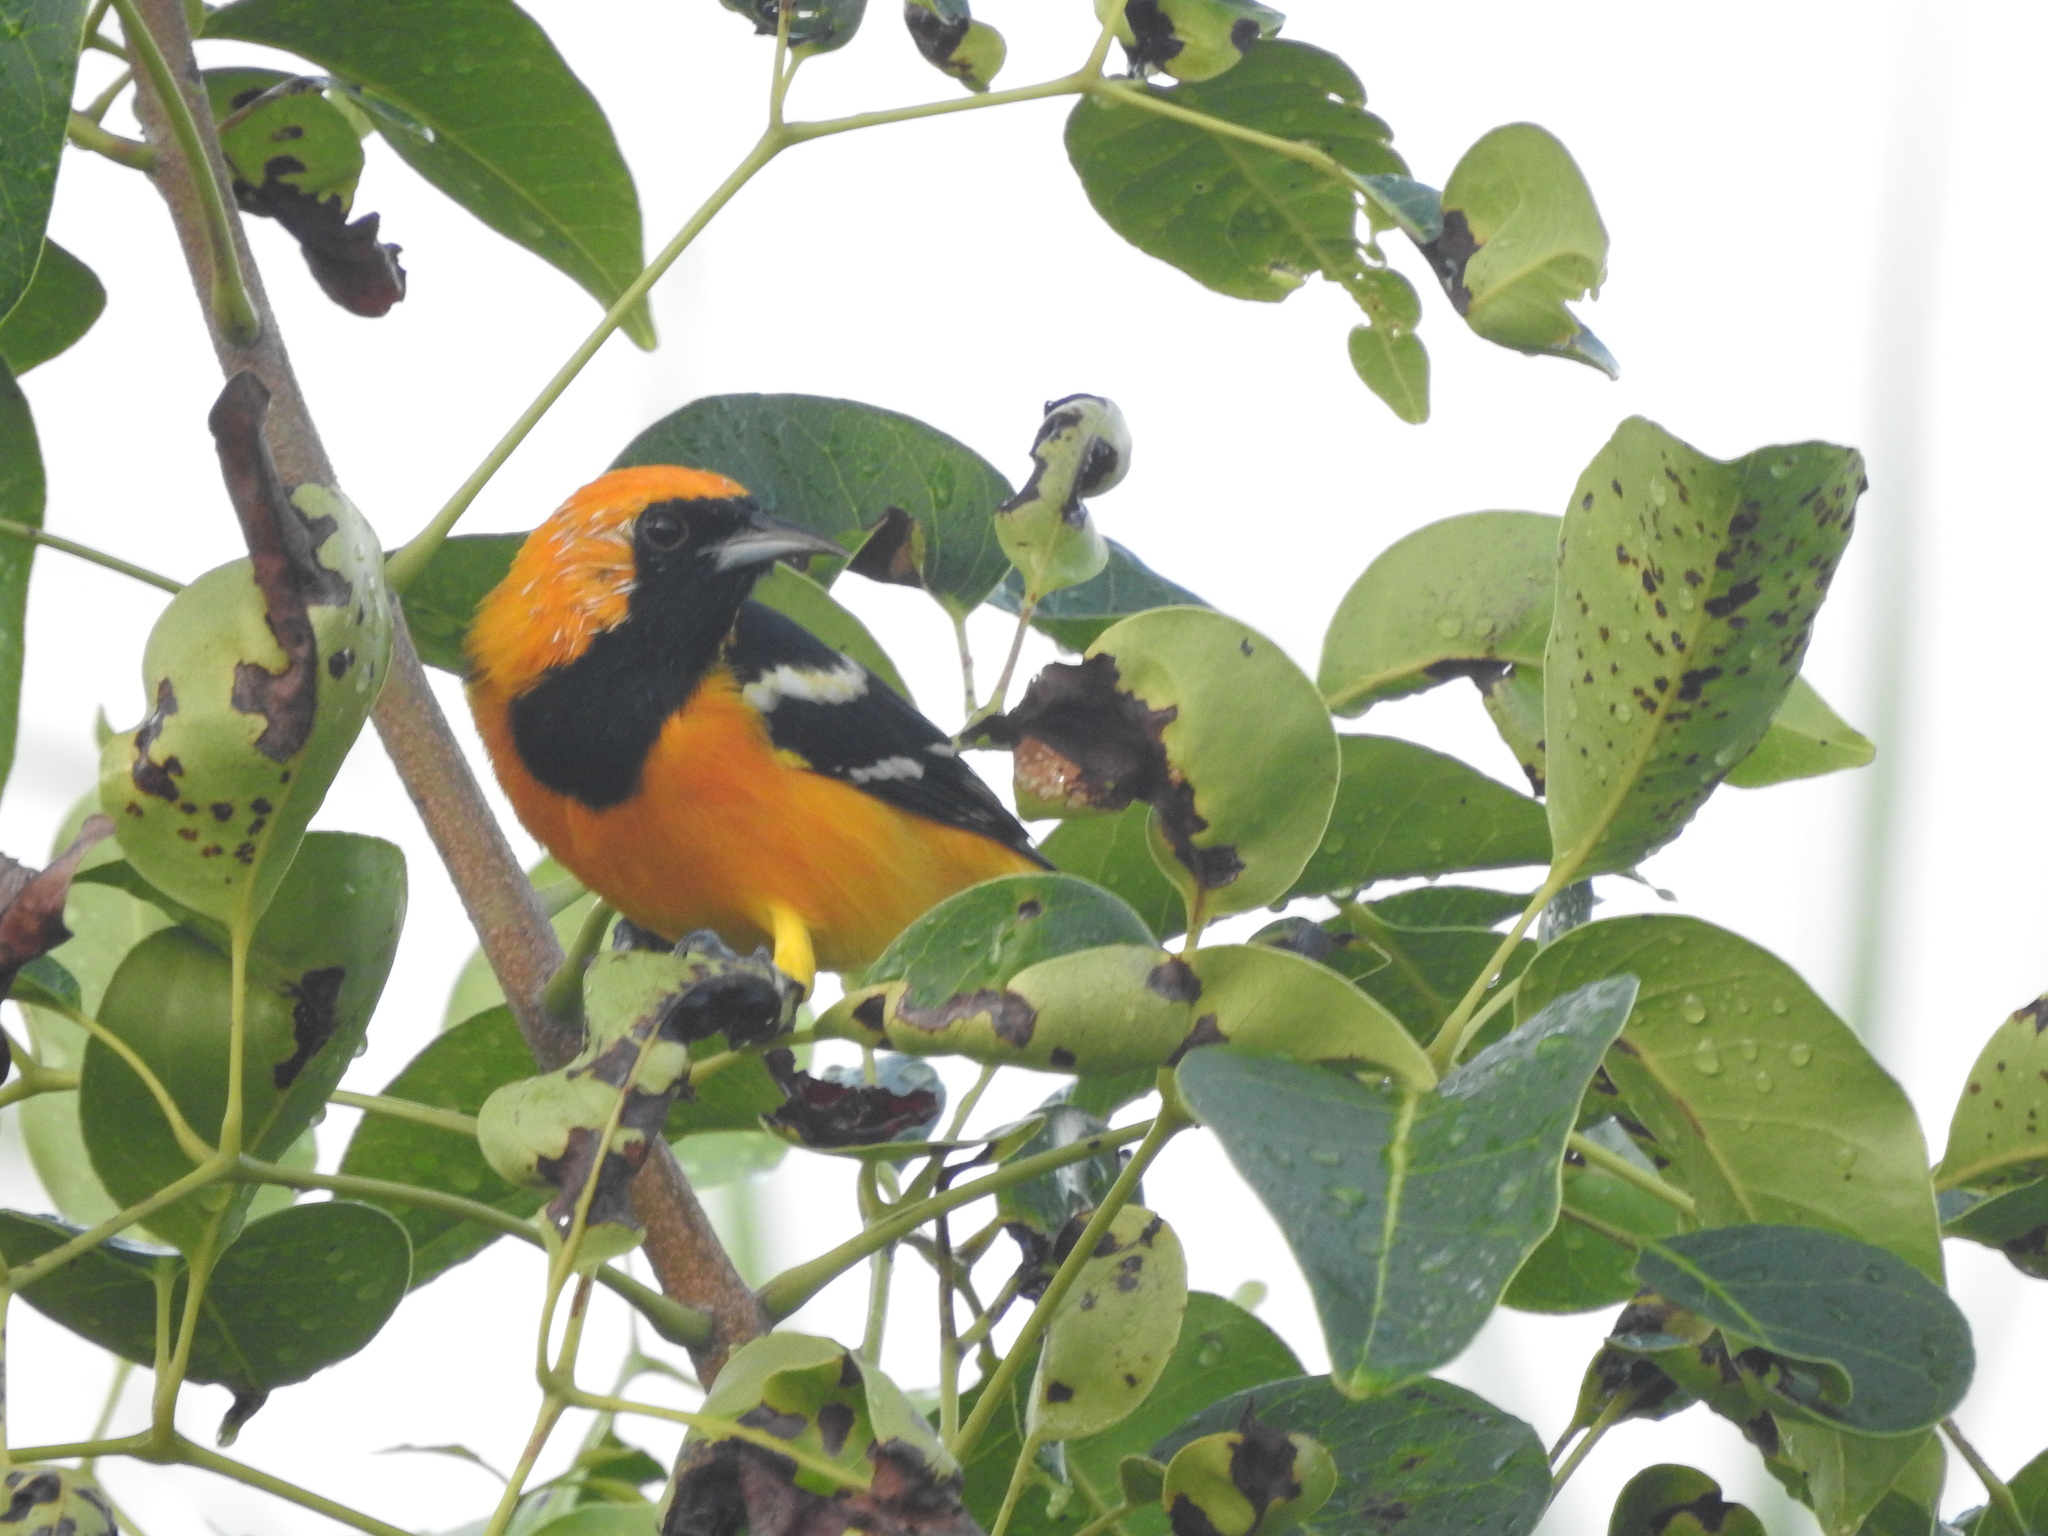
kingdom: Animalia
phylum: Chordata
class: Aves
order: Passeriformes
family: Icteridae
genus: Icterus
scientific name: Icterus cucullatus
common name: Hooded oriole
